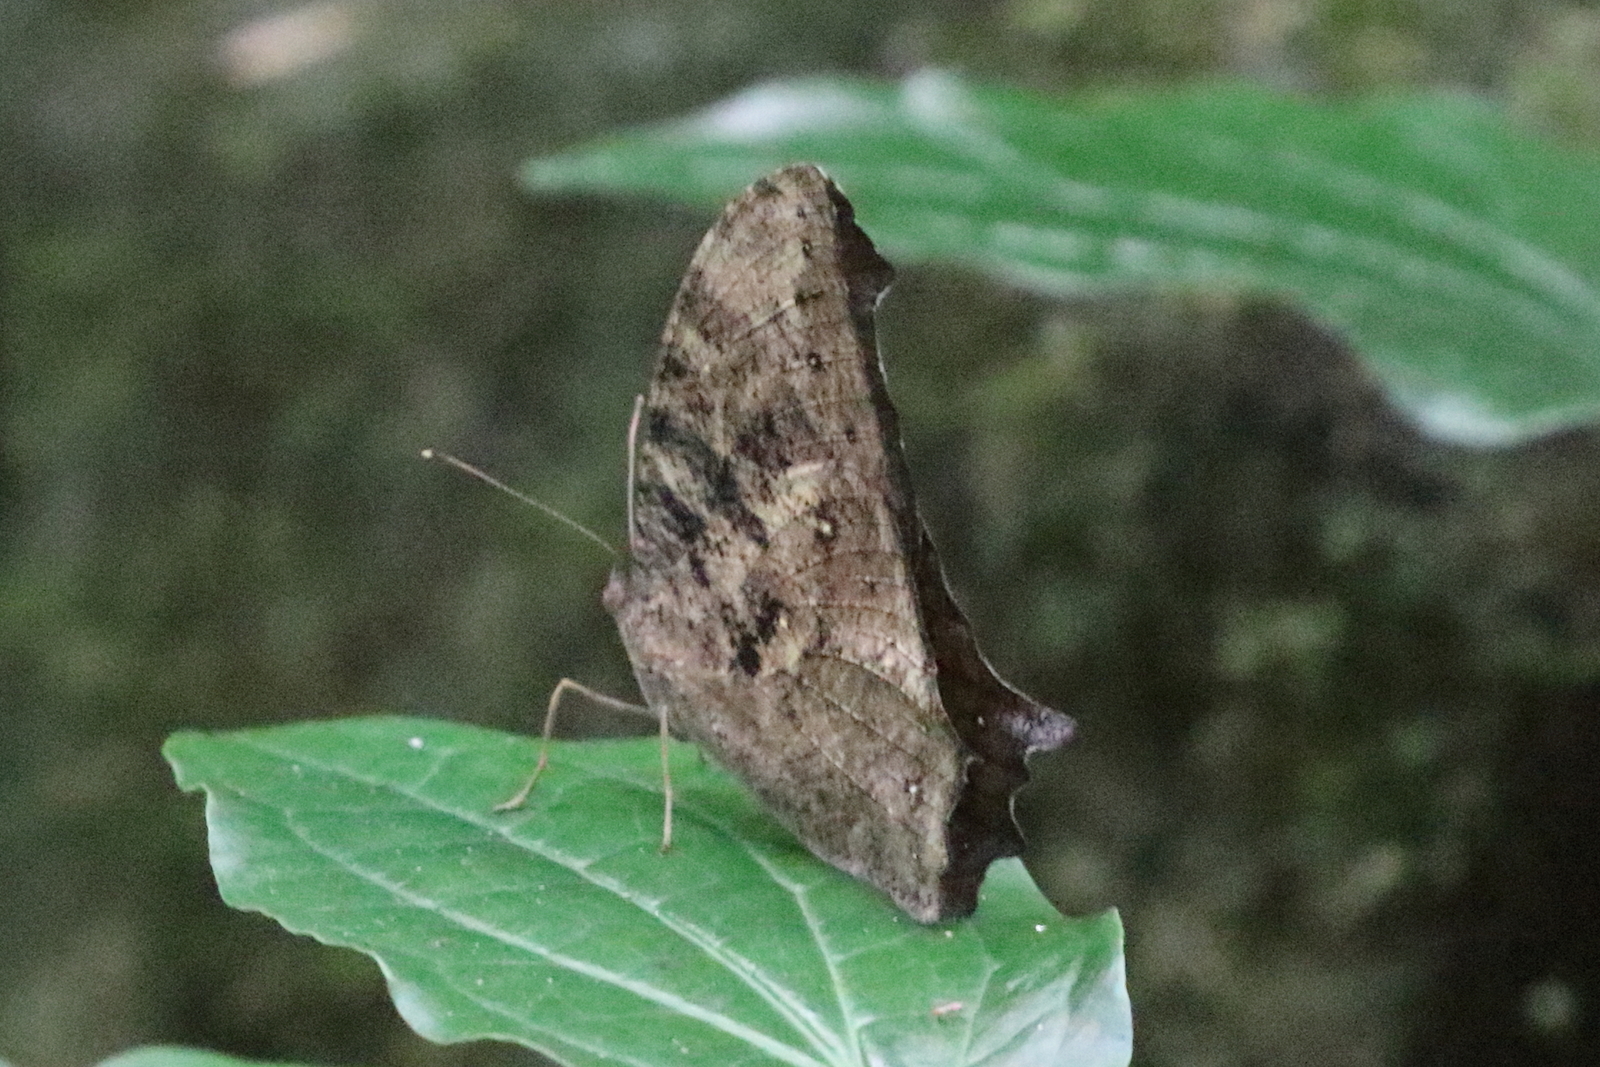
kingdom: Animalia
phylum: Arthropoda
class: Insecta
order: Lepidoptera
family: Nymphalidae
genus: Melanitis
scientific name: Melanitis leda
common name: Twilight brown
